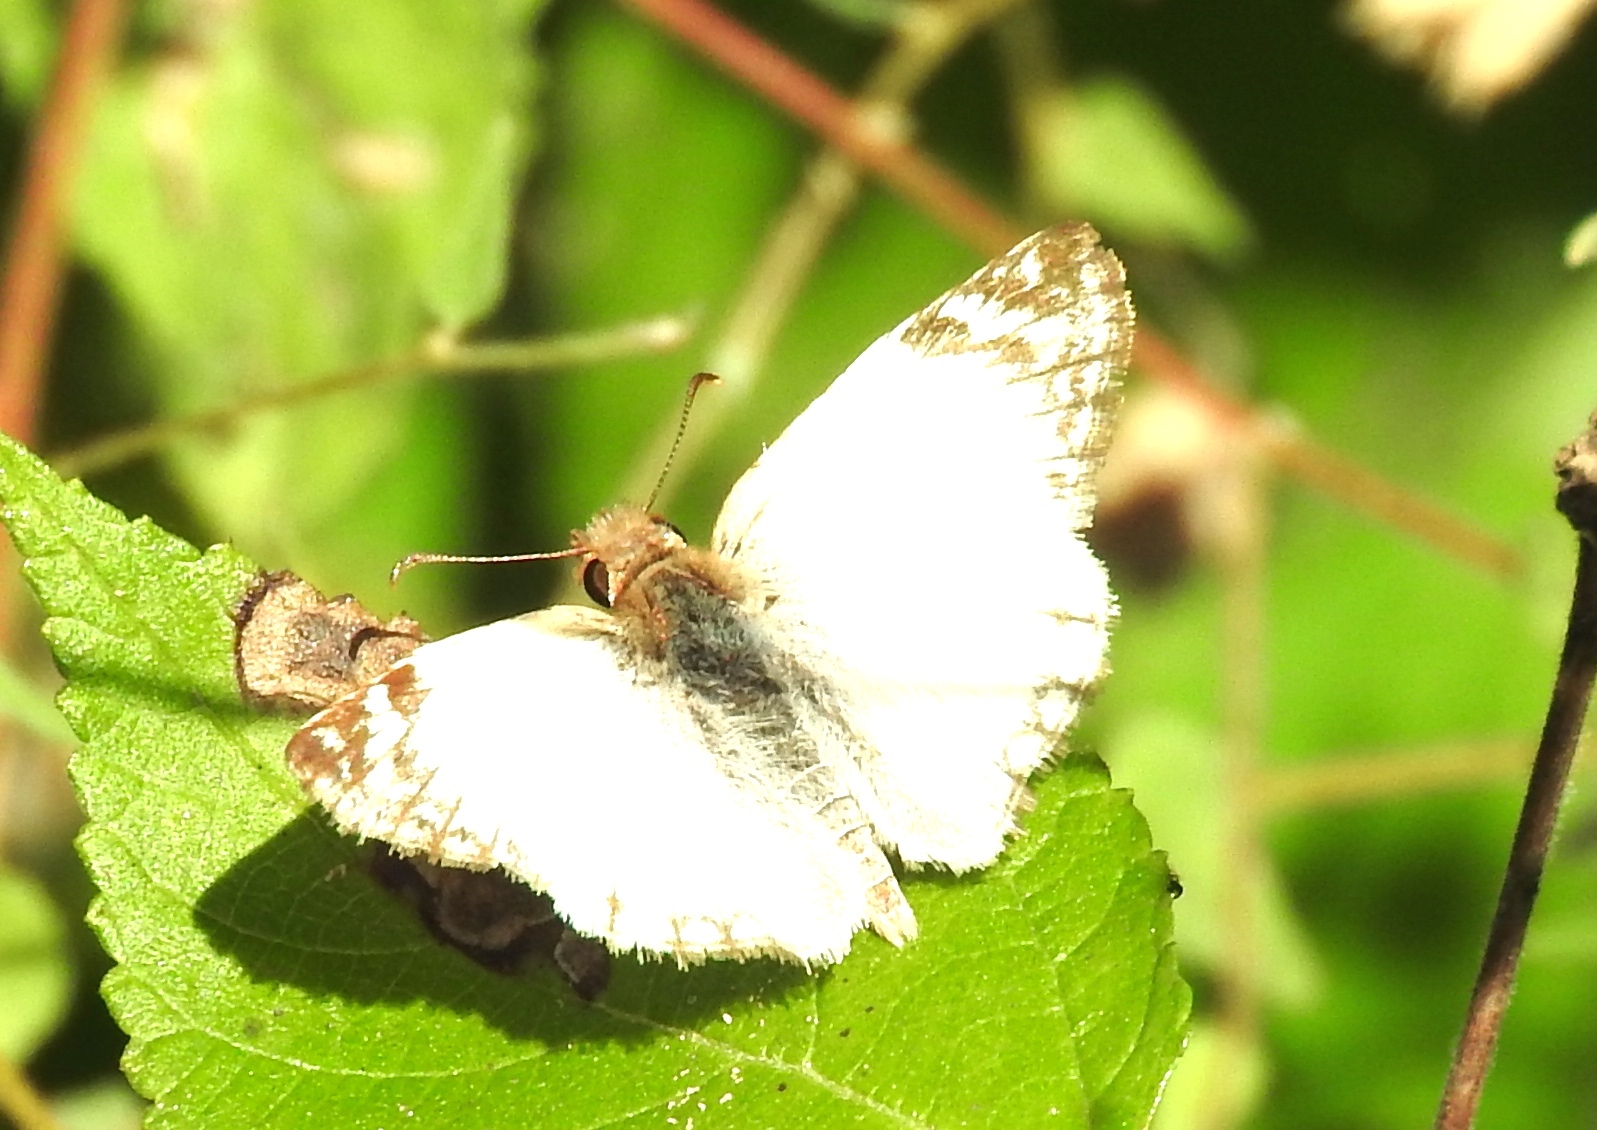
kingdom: Animalia
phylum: Arthropoda
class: Insecta
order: Lepidoptera
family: Hesperiidae
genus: Heliopetes
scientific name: Heliopetes laviana
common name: Laviana white-skipper
